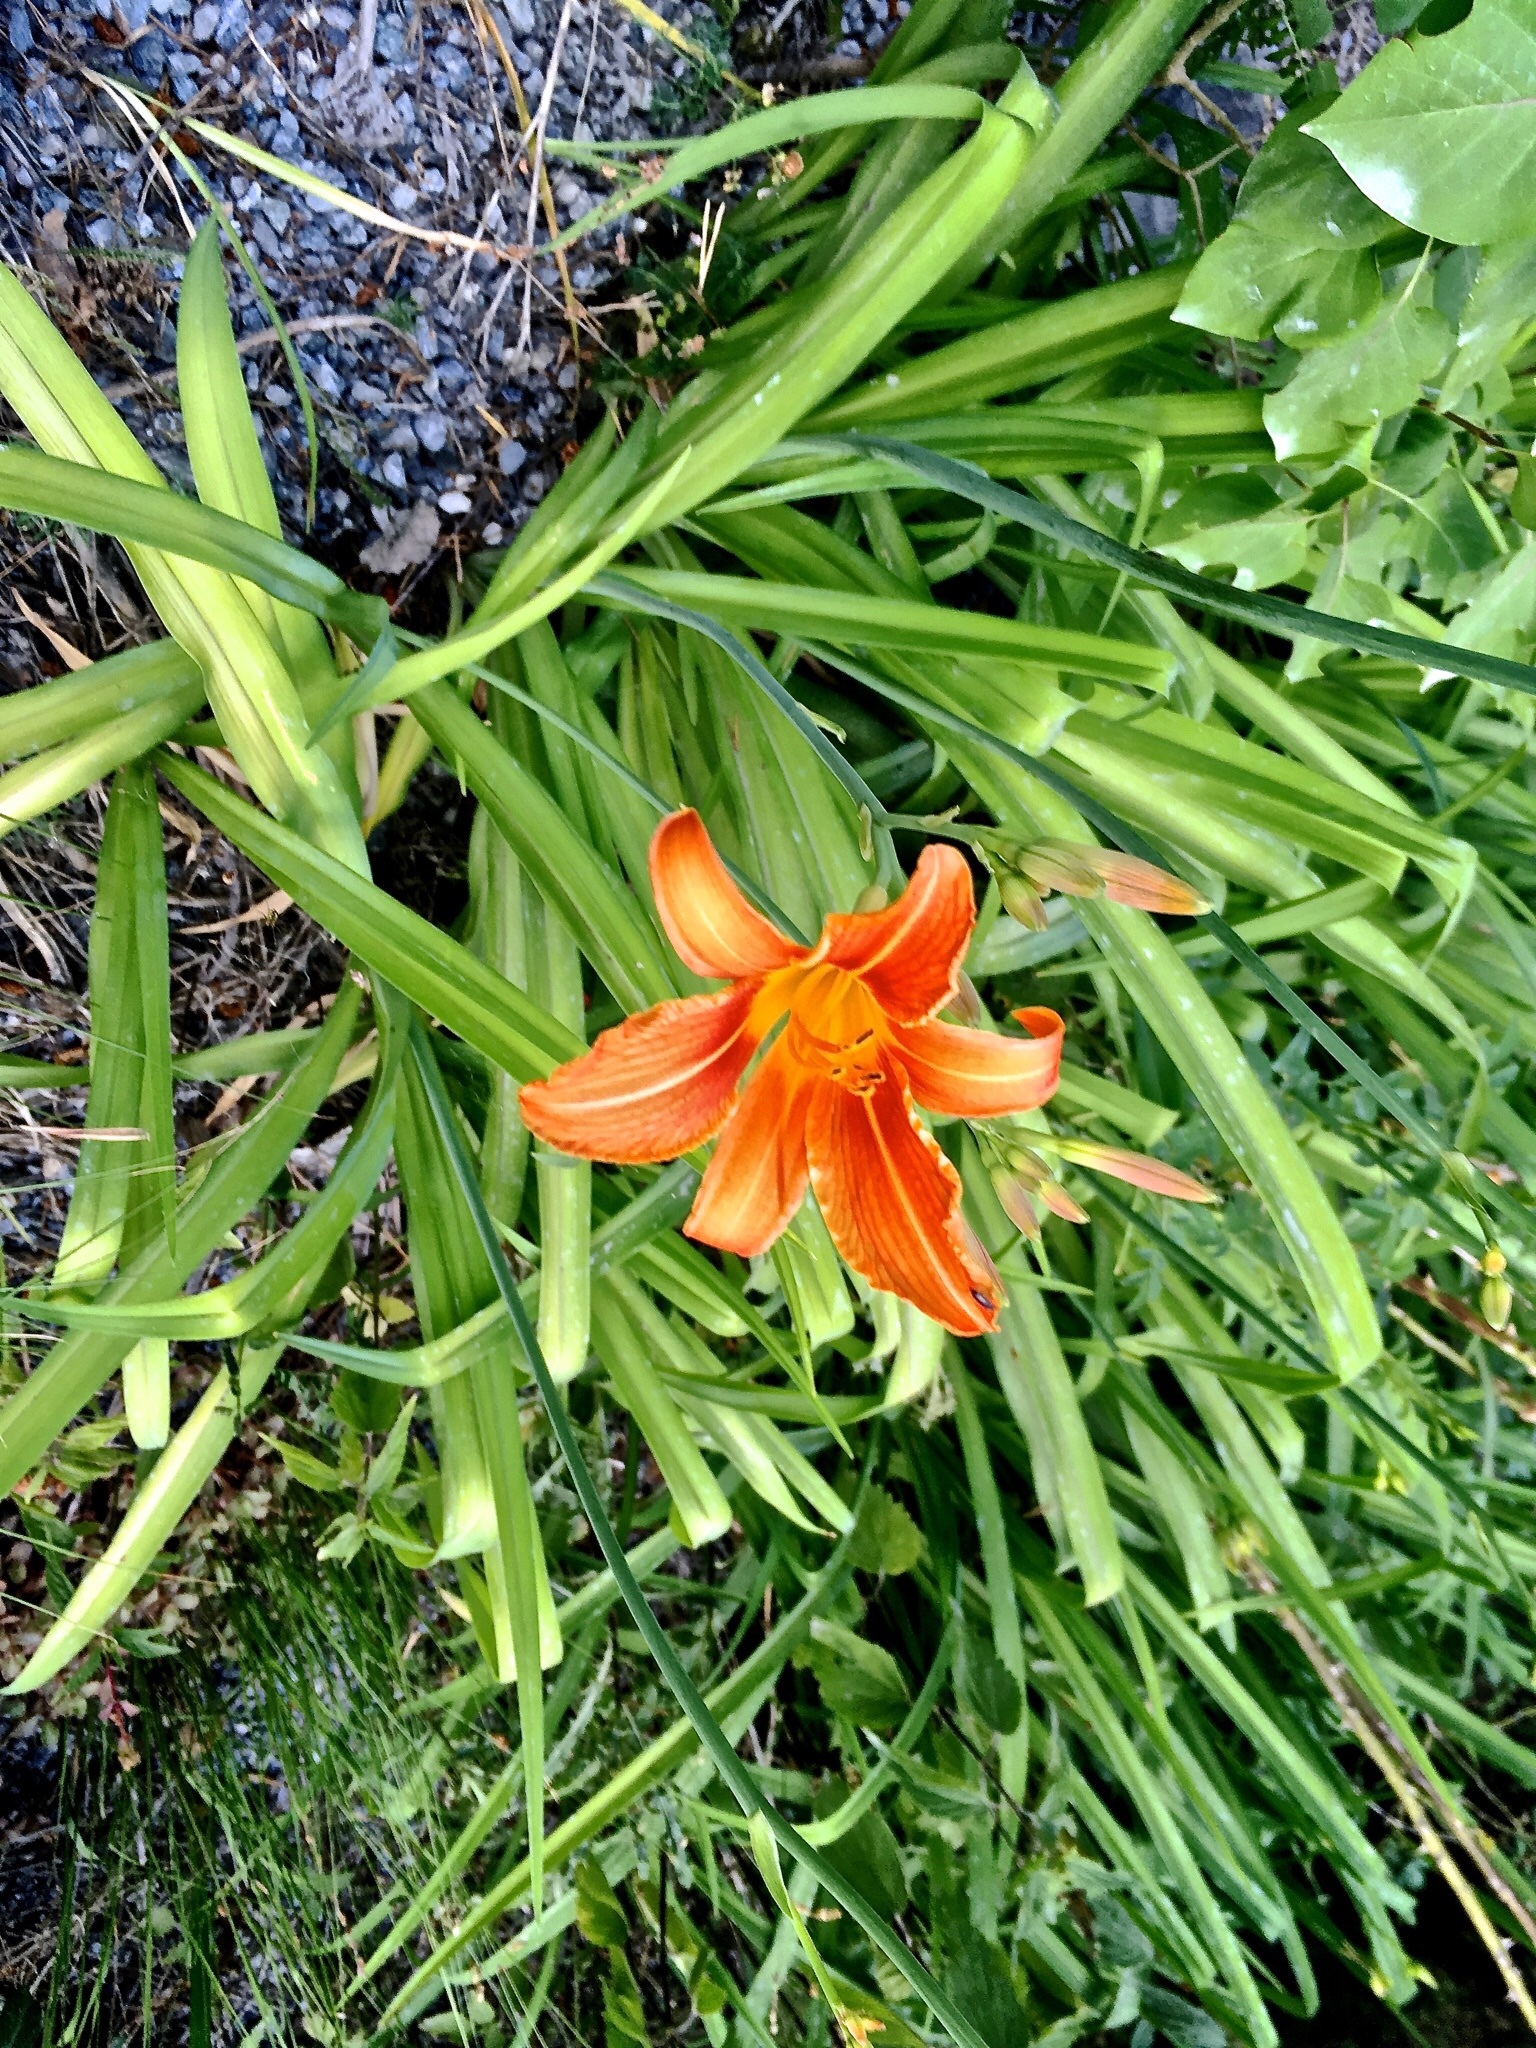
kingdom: Plantae
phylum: Tracheophyta
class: Liliopsida
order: Asparagales
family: Asphodelaceae
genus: Hemerocallis
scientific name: Hemerocallis fulva
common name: Orange day-lily
